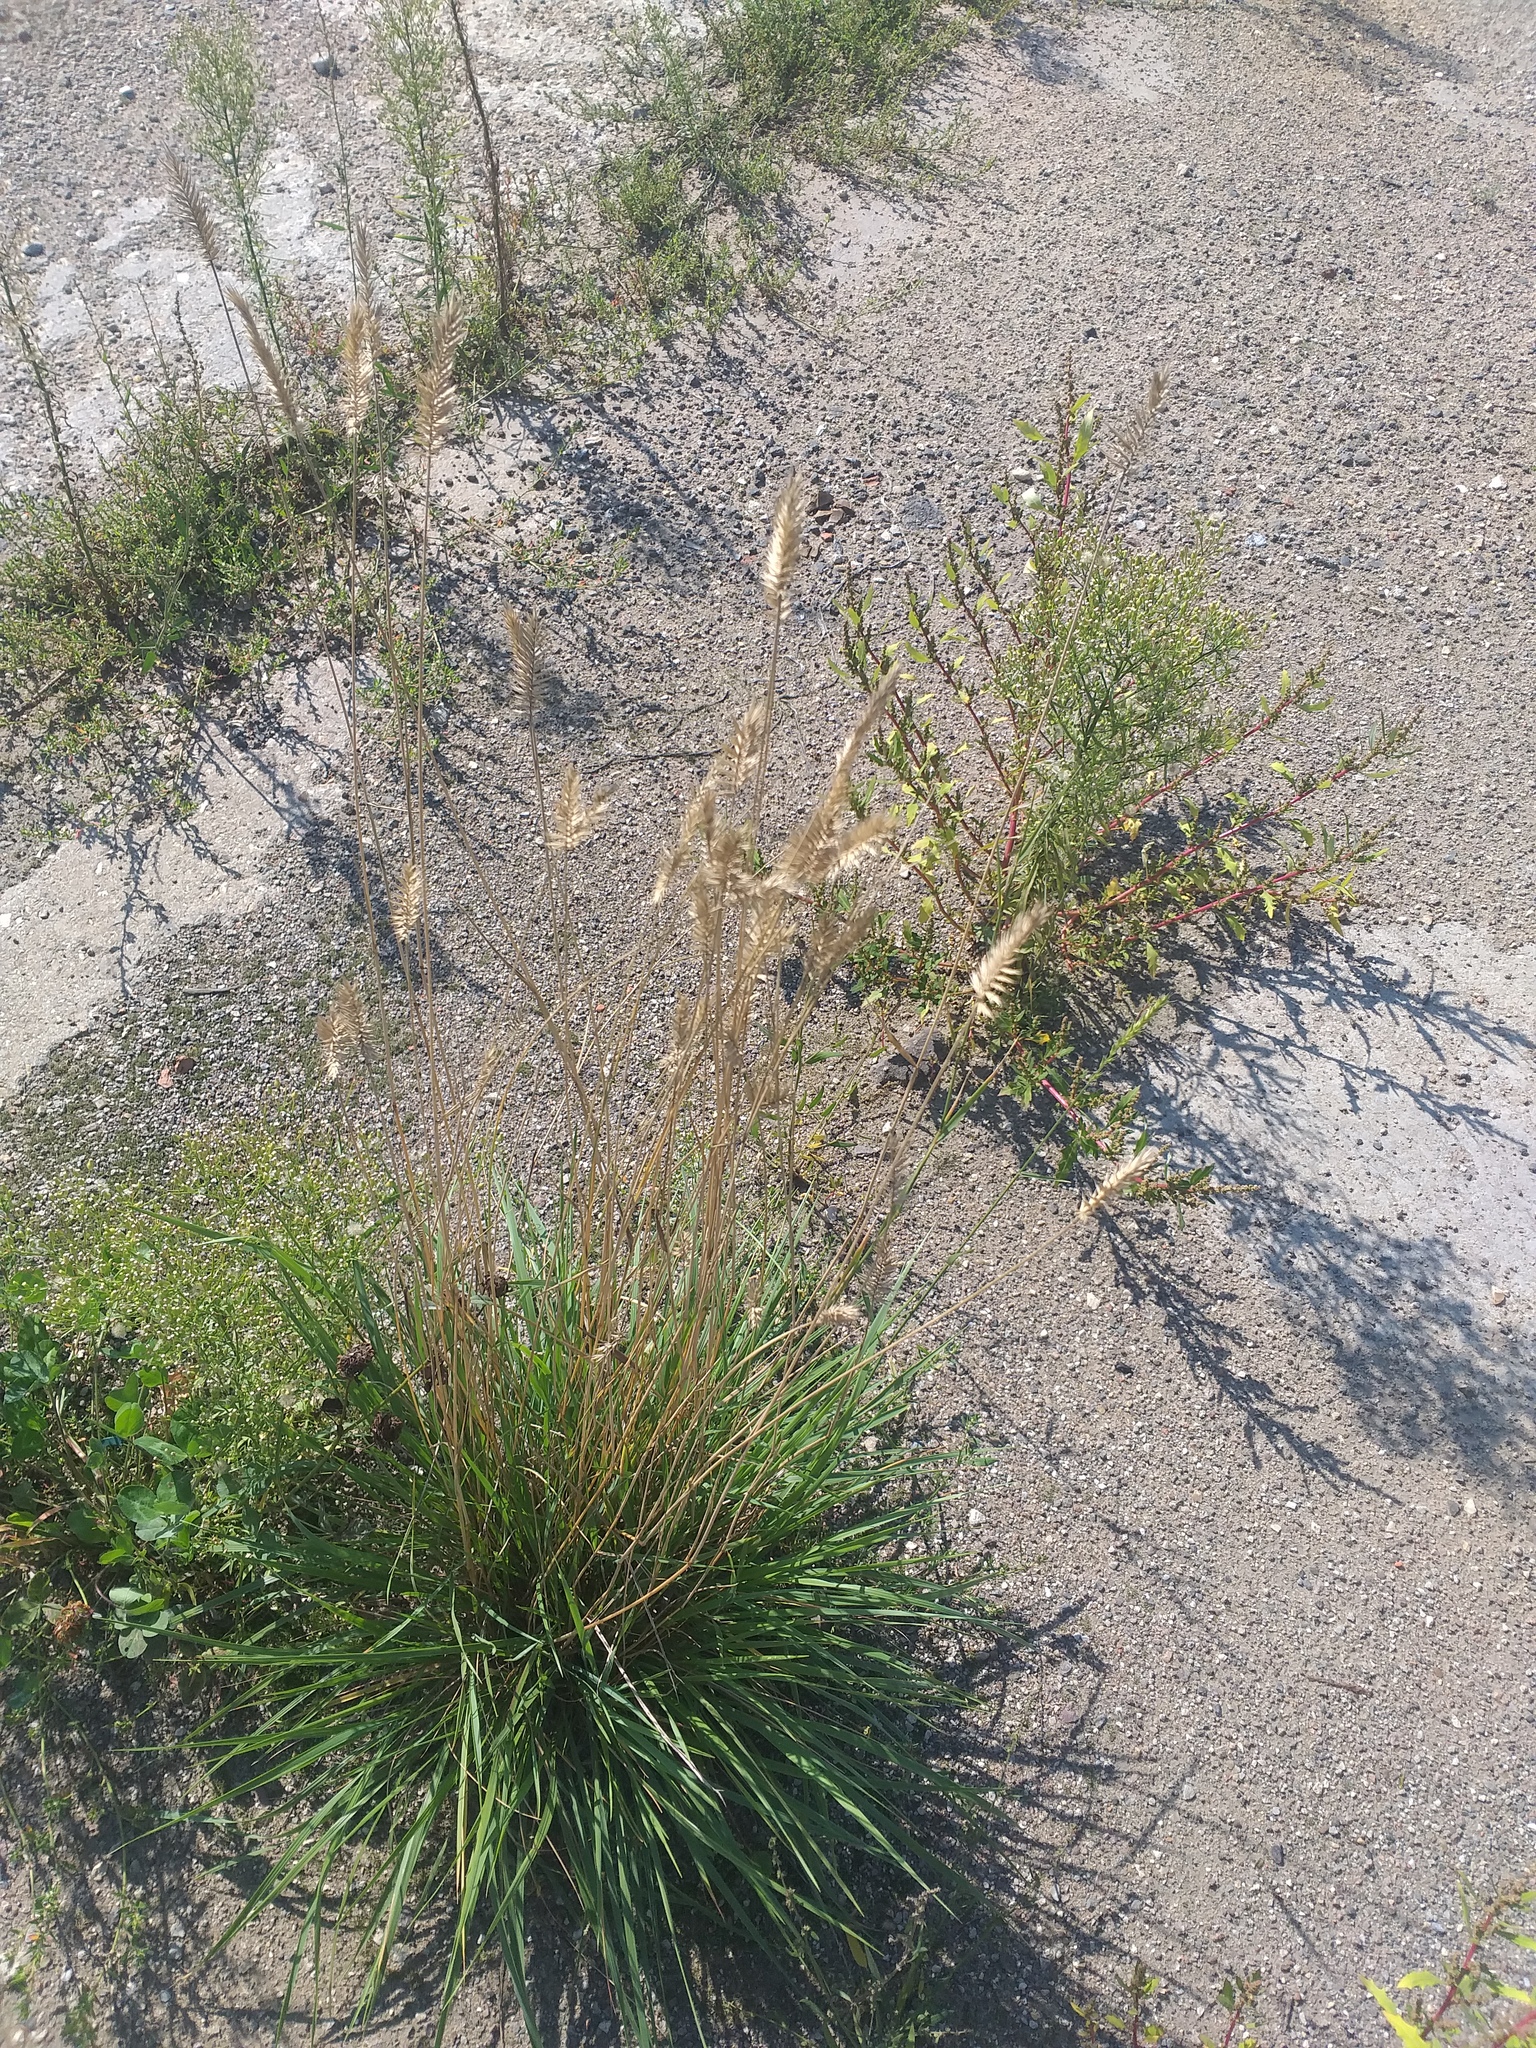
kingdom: Plantae
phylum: Tracheophyta
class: Liliopsida
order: Poales
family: Poaceae
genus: Agropyron
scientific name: Agropyron cristatum
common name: Crested wheatgrass
